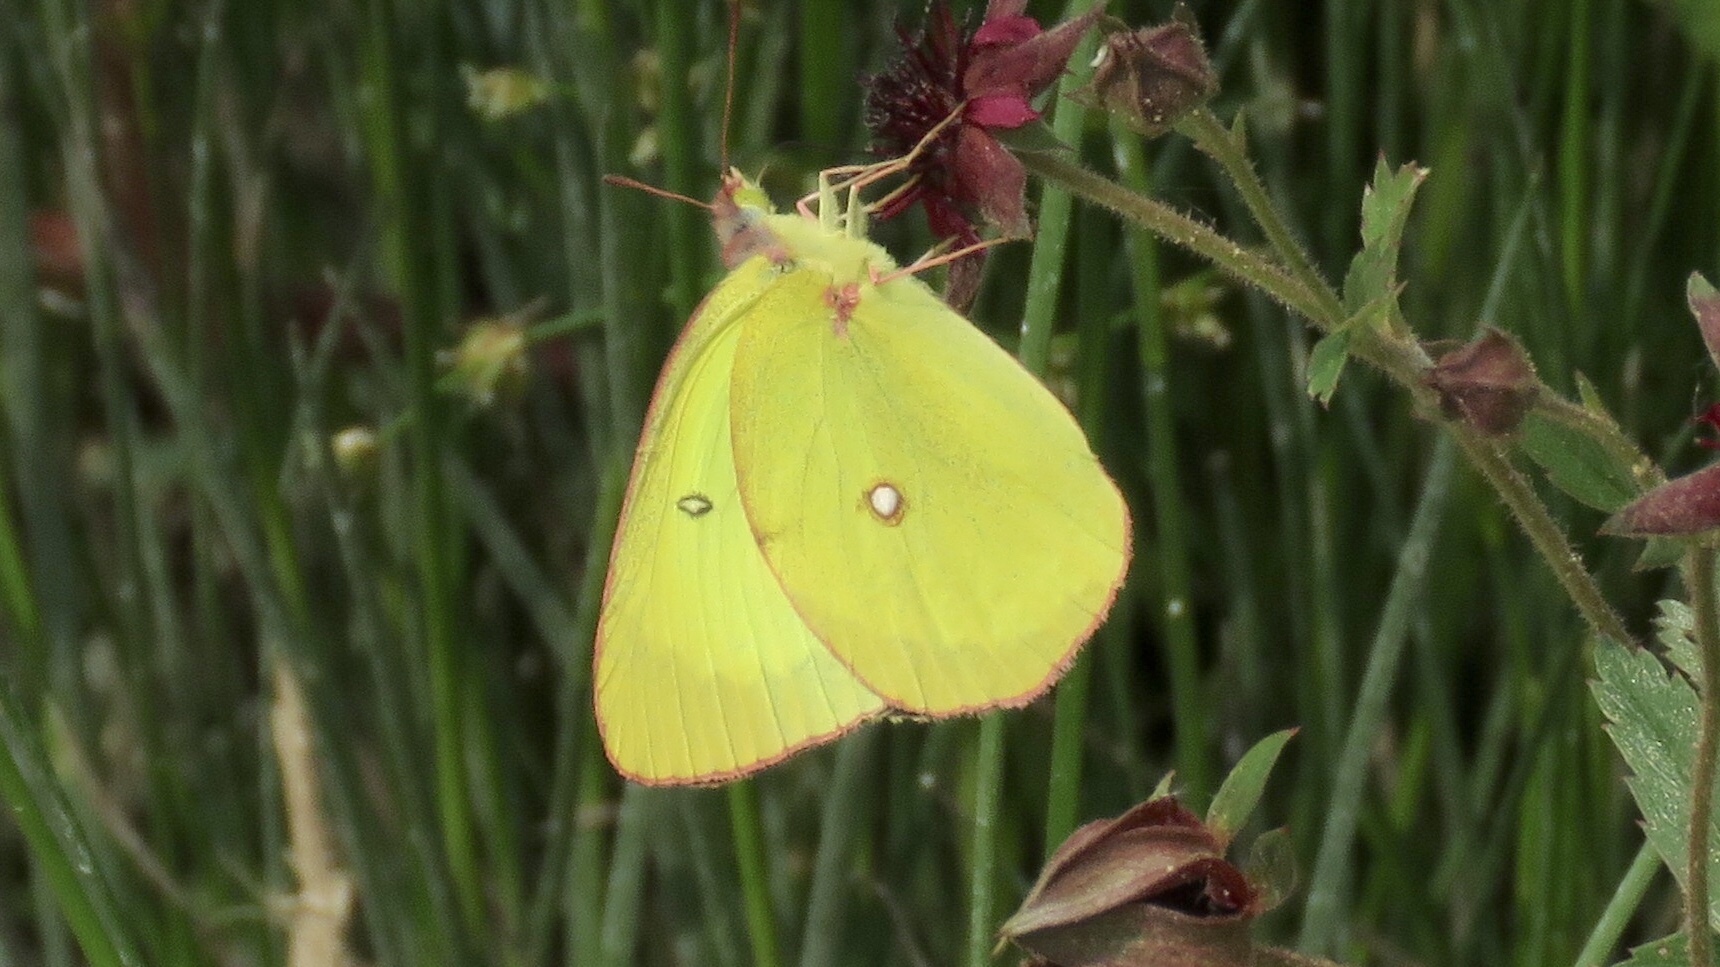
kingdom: Animalia
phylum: Arthropoda
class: Insecta
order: Lepidoptera
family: Pieridae
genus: Colias
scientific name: Colias interior
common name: Pink-edged sulphur
